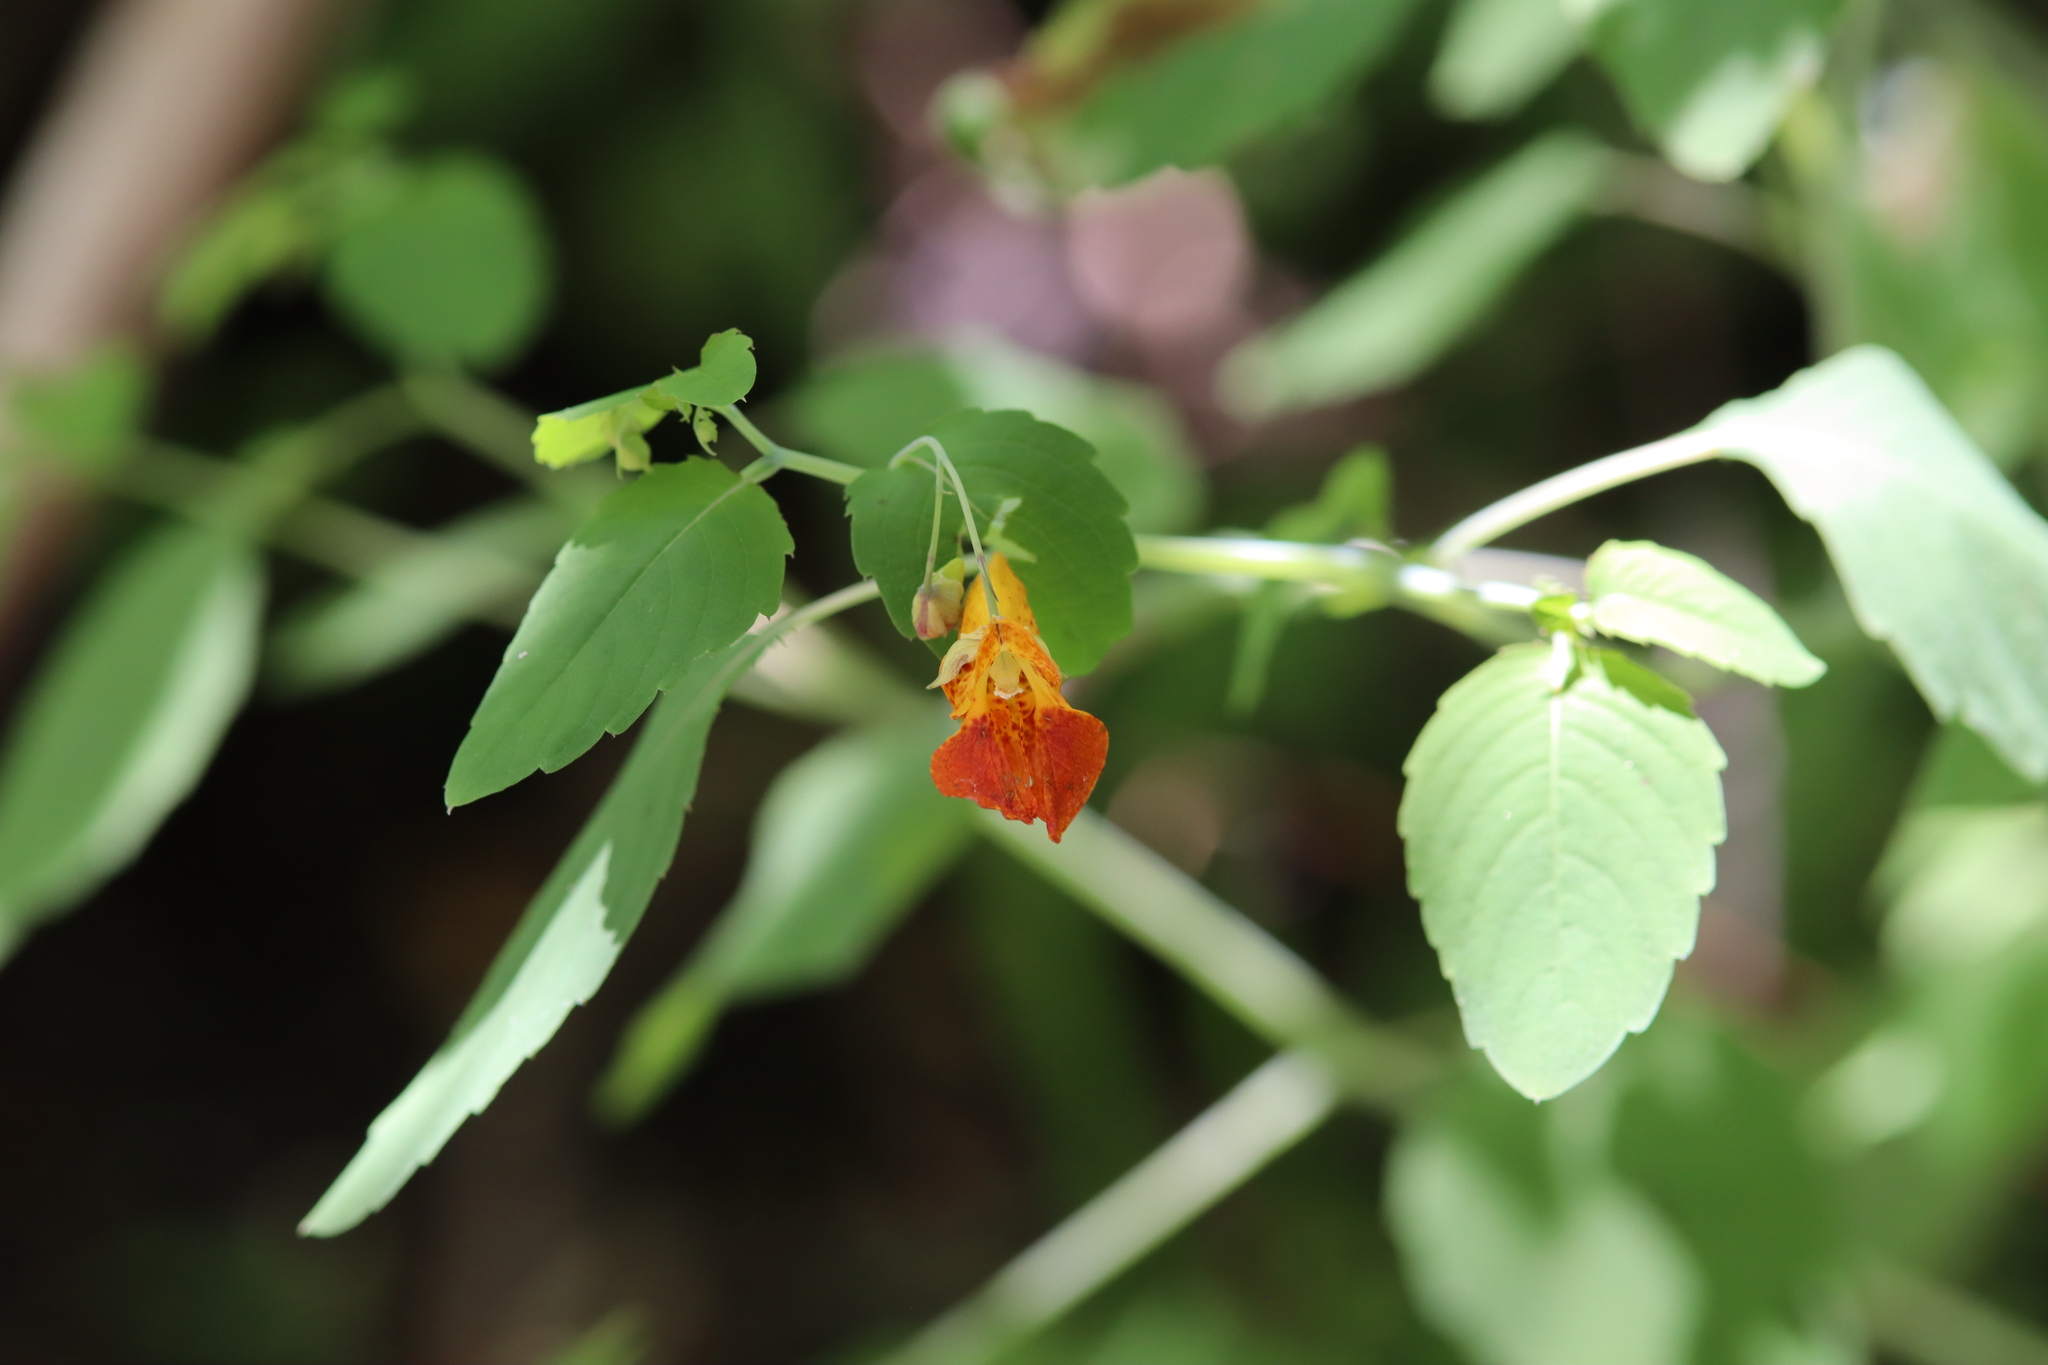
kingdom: Plantae
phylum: Tracheophyta
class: Magnoliopsida
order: Ericales
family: Balsaminaceae
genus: Impatiens
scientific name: Impatiens capensis
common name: Orange balsam
